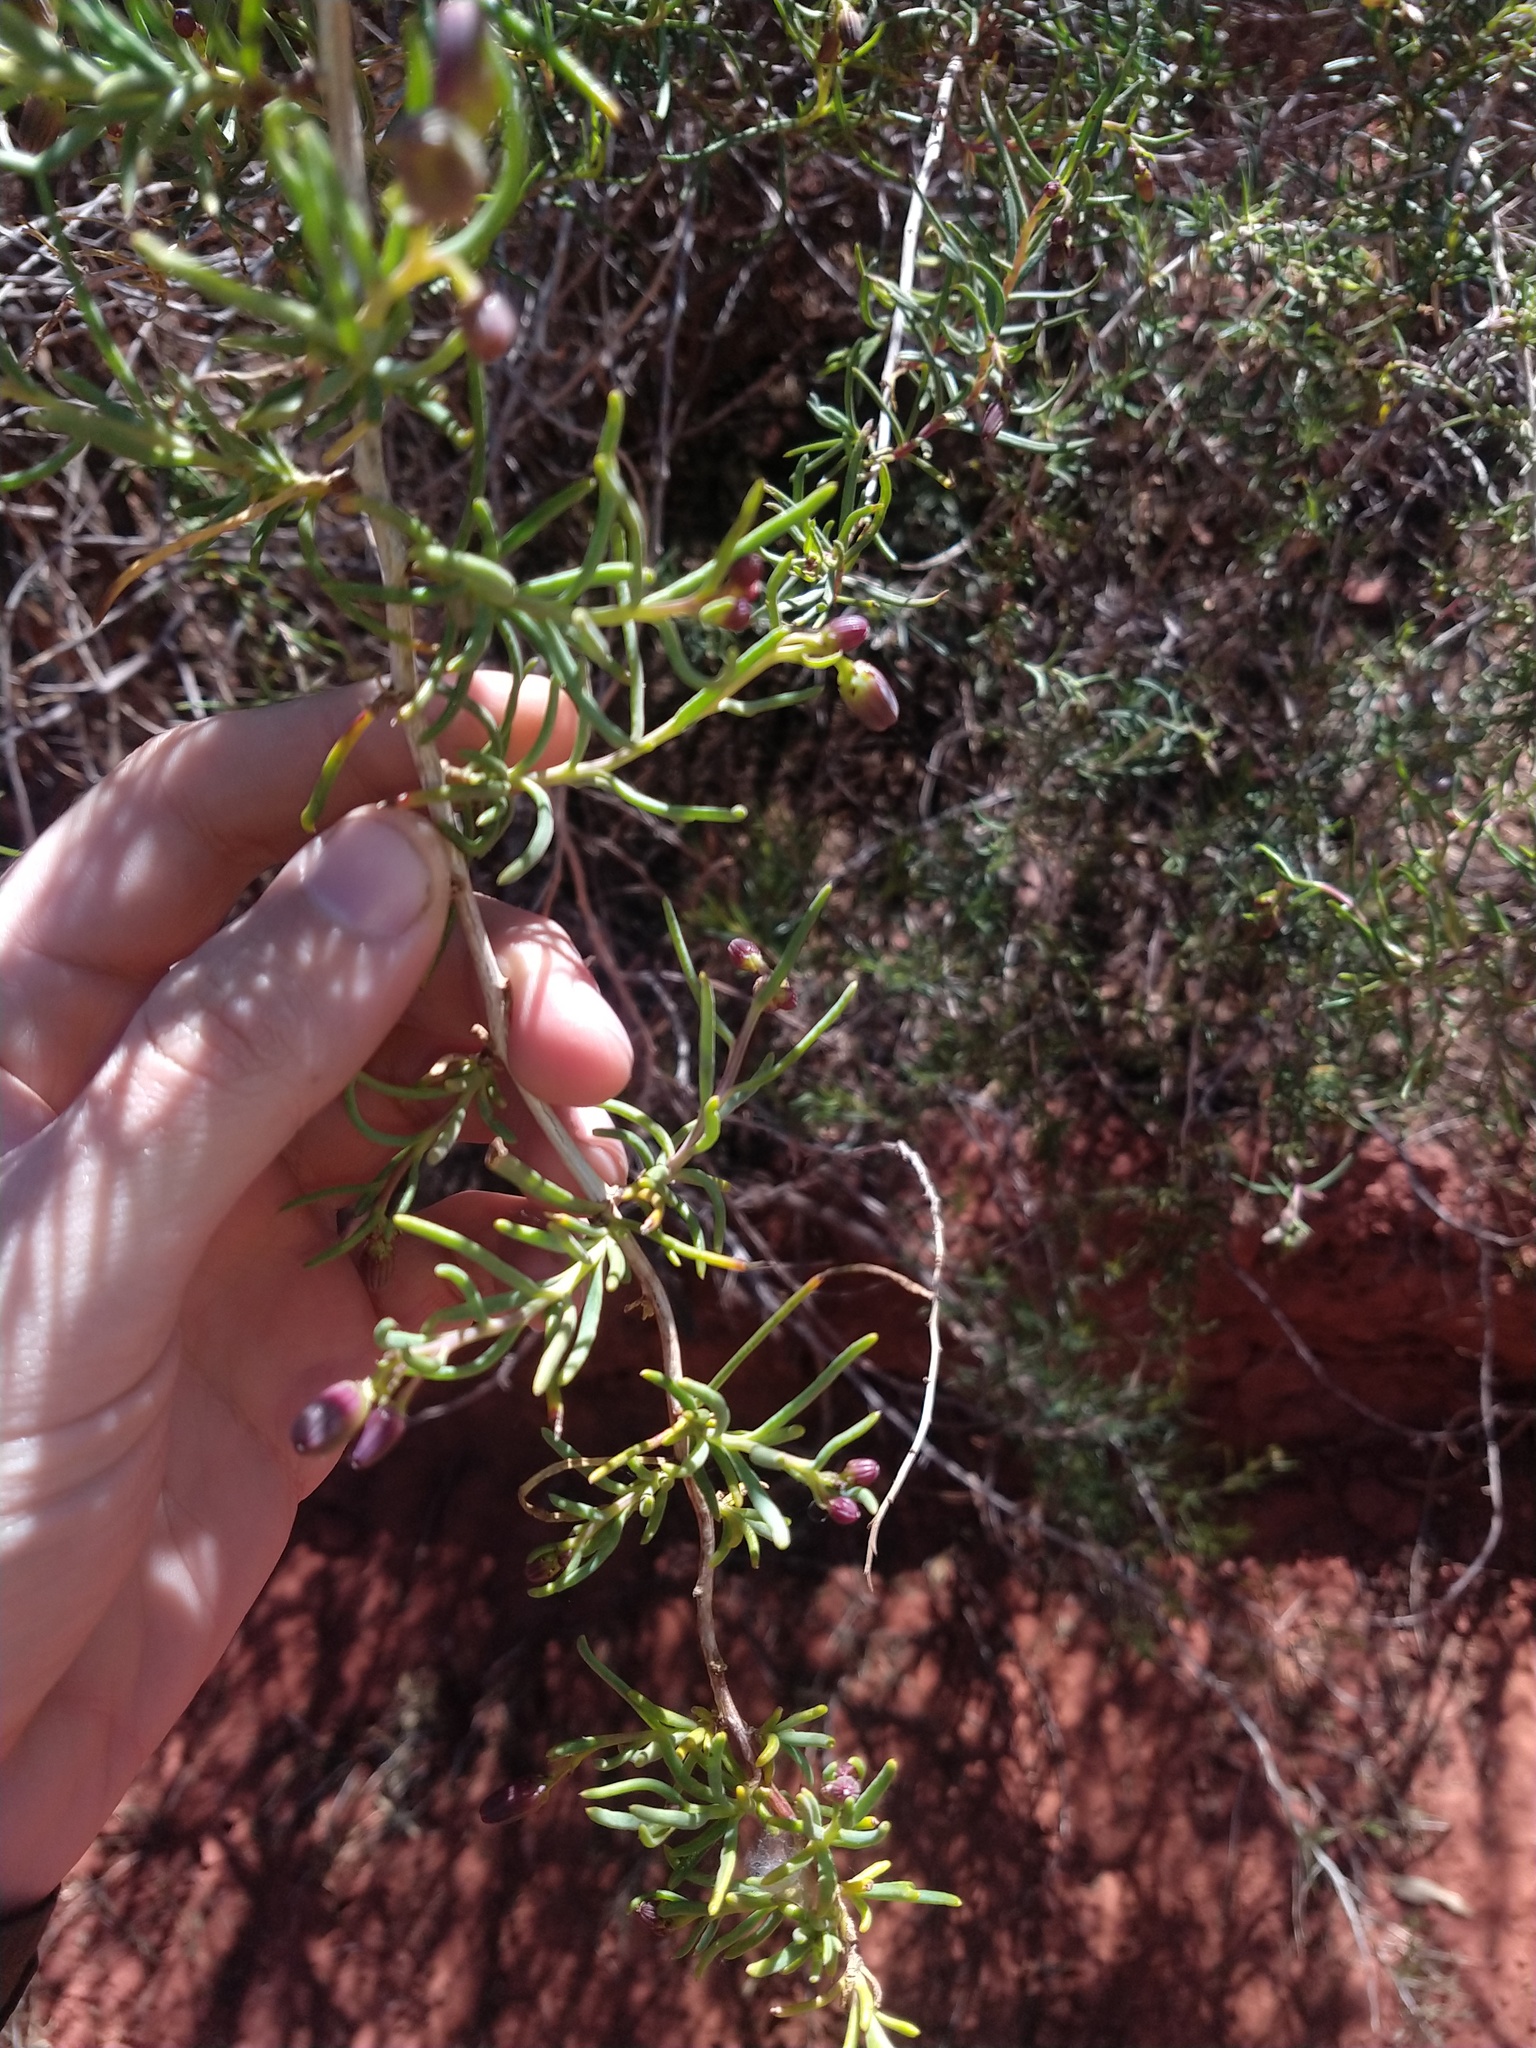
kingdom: Plantae
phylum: Tracheophyta
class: Magnoliopsida
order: Asterales
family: Asteraceae
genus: Senecio
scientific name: Senecio subulatus
